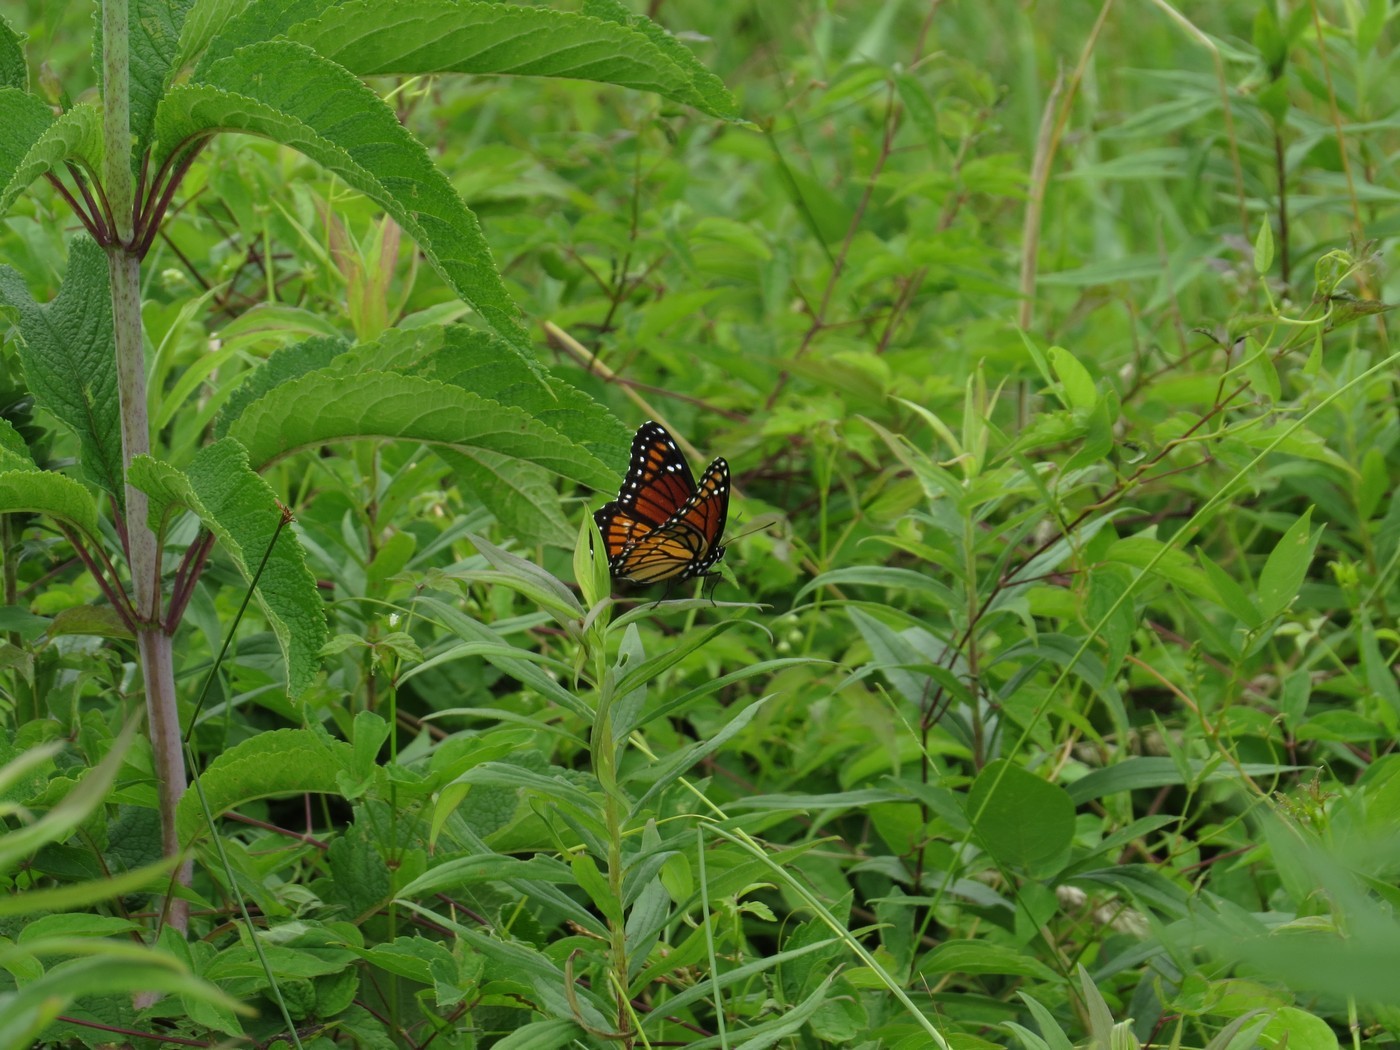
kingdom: Animalia
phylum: Arthropoda
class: Insecta
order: Lepidoptera
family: Nymphalidae
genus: Limenitis
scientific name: Limenitis archippus
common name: Viceroy
